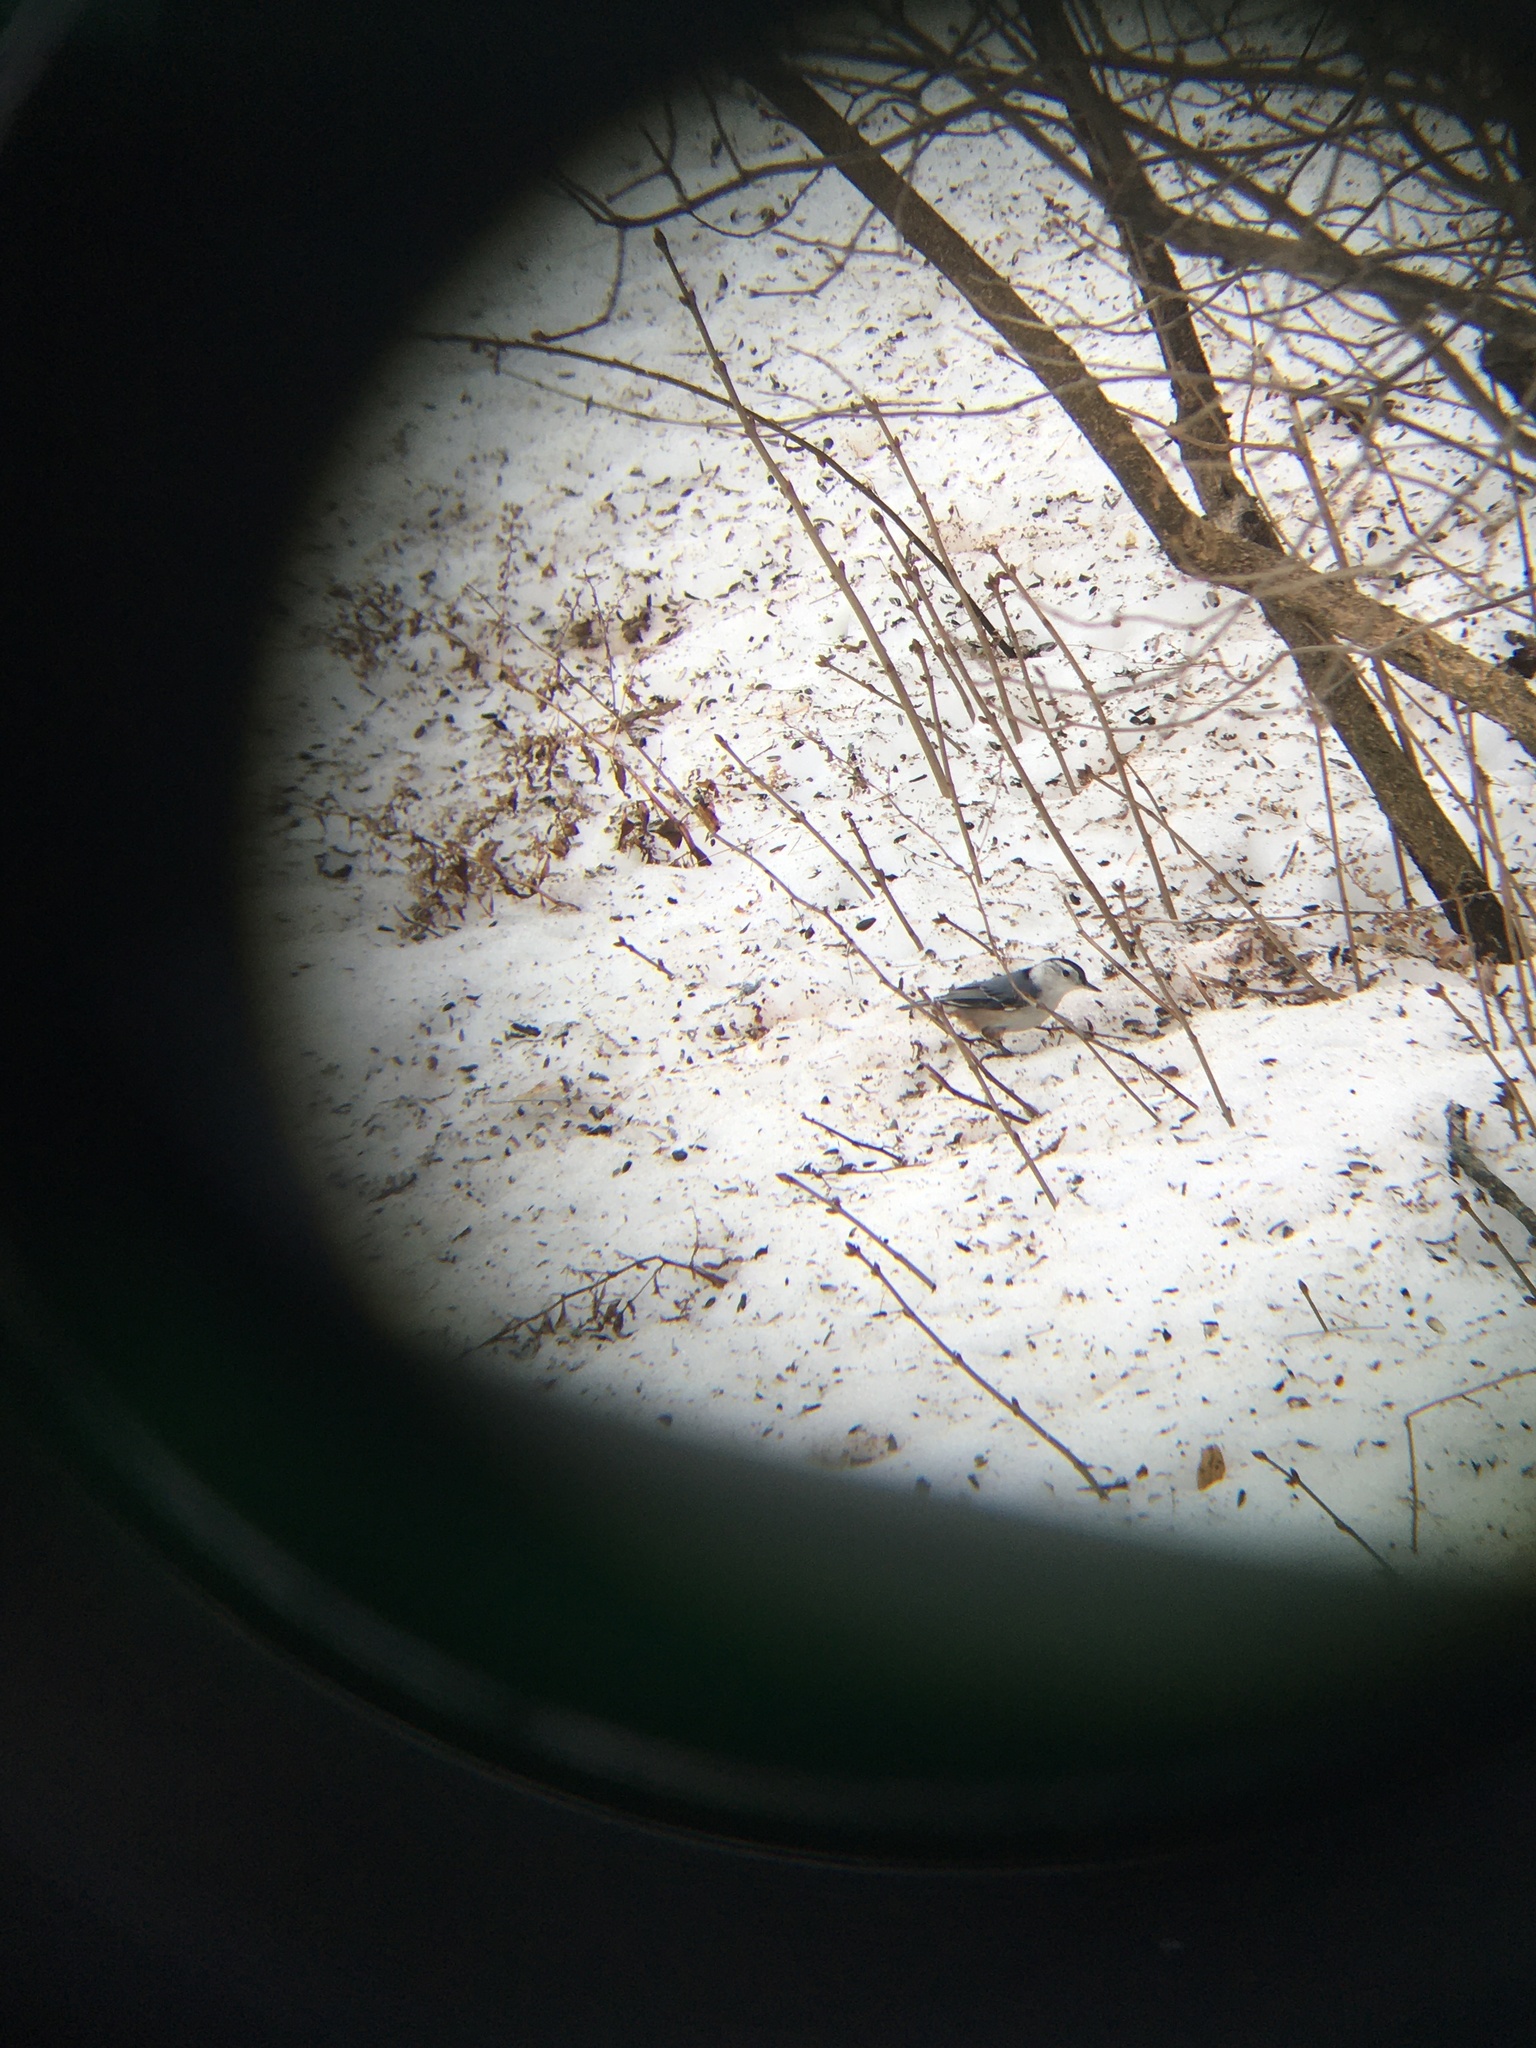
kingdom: Animalia
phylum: Chordata
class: Aves
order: Passeriformes
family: Sittidae
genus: Sitta
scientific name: Sitta carolinensis
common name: White-breasted nuthatch
